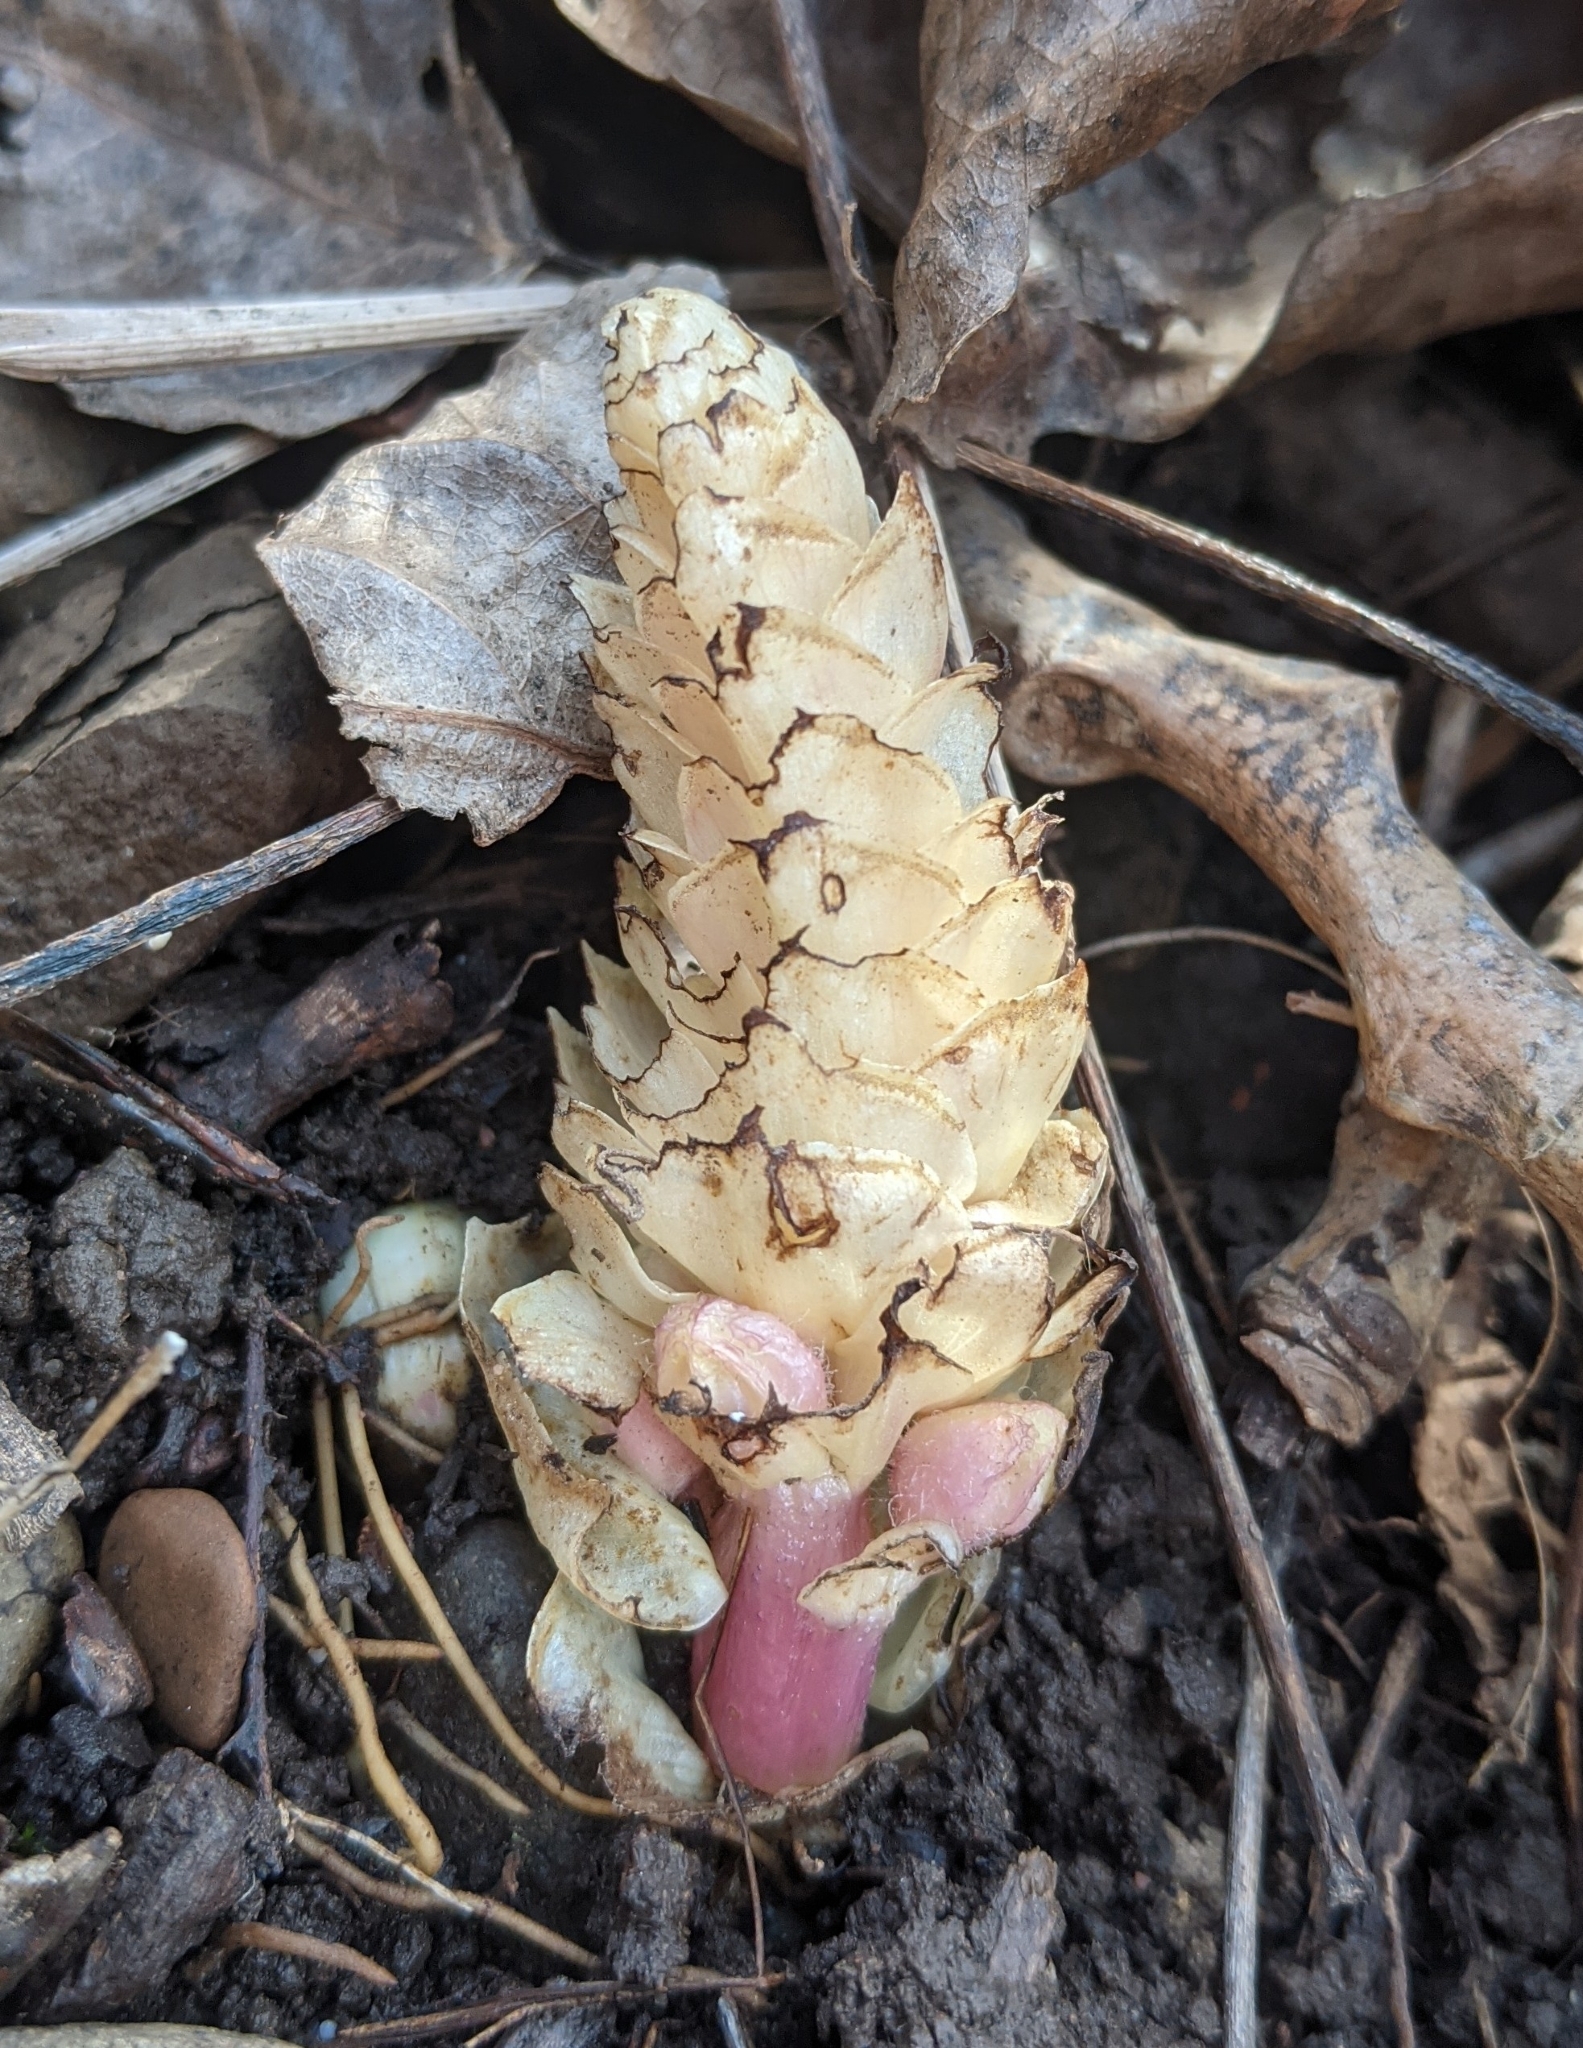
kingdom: Plantae
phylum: Tracheophyta
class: Magnoliopsida
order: Lamiales
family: Orobanchaceae
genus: Lathraea
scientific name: Lathraea squamaria
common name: Toothwort
